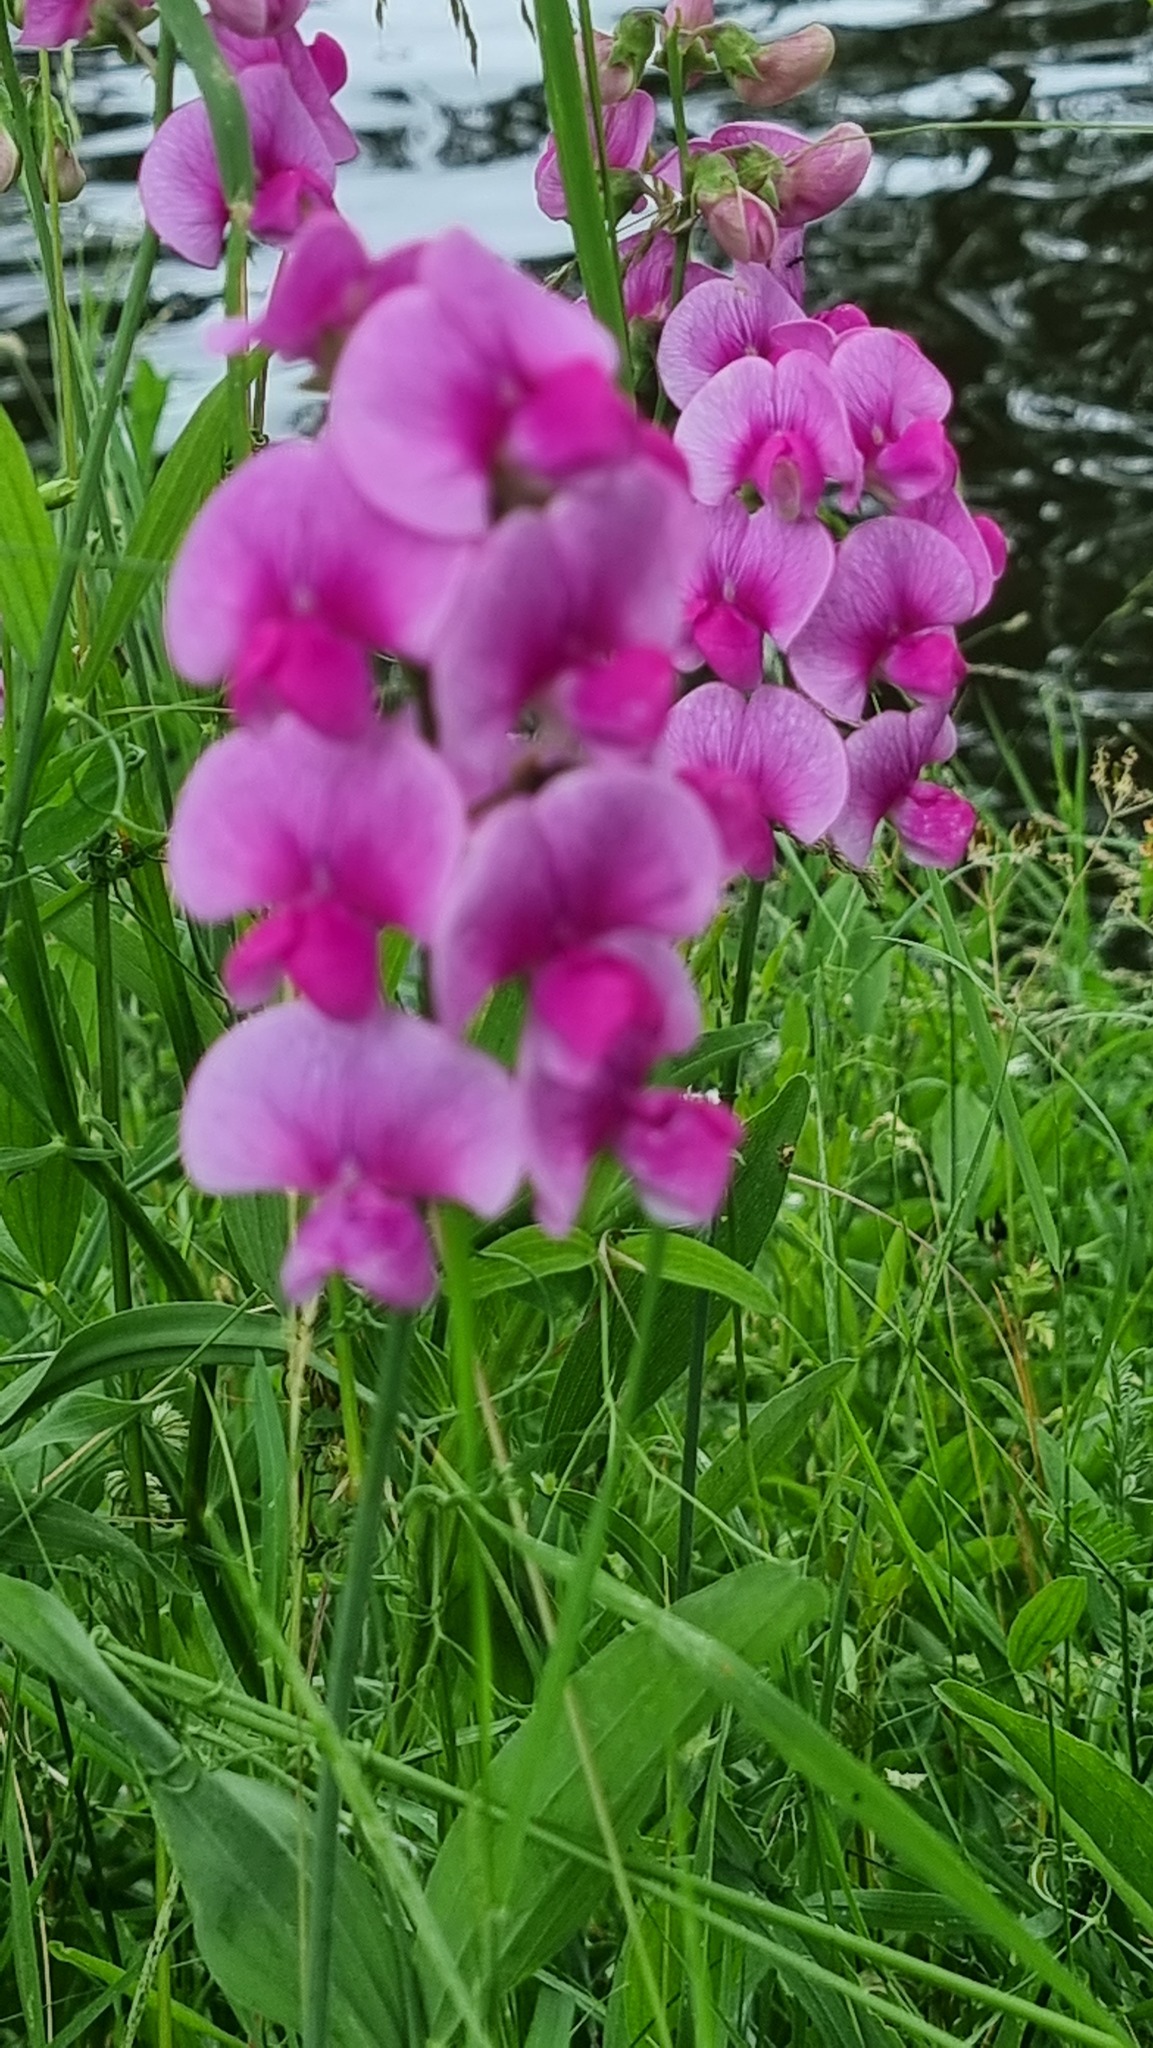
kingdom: Plantae
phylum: Tracheophyta
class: Magnoliopsida
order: Fabales
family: Fabaceae
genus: Lathyrus
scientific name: Lathyrus latifolius
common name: Perennial pea
